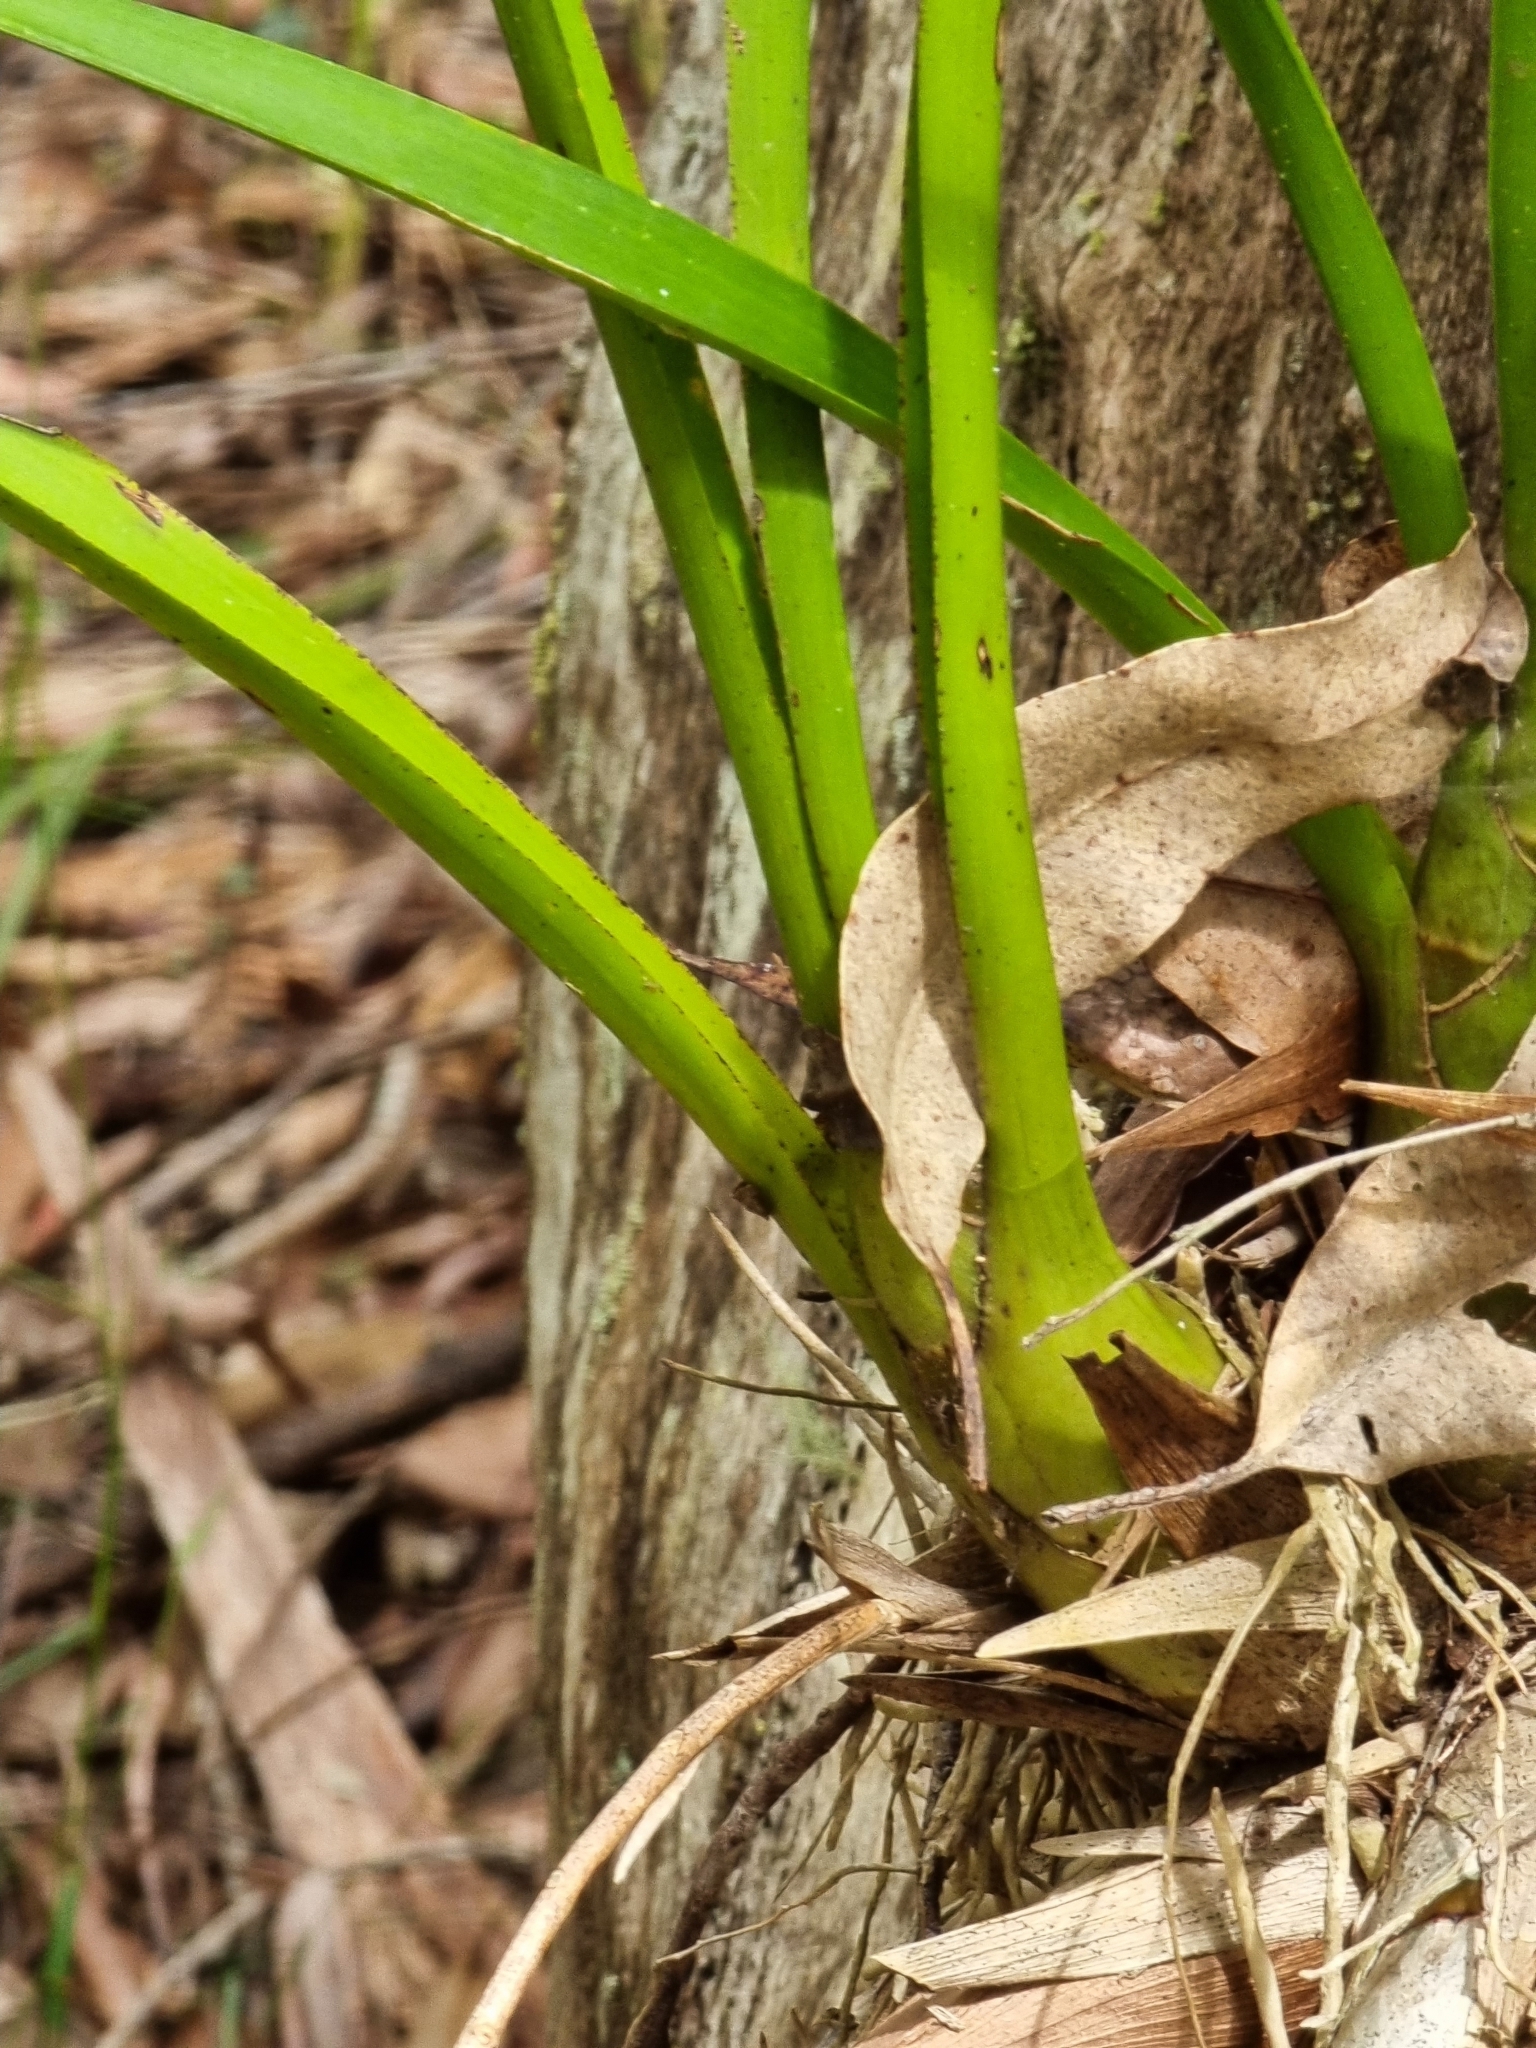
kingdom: Plantae
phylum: Tracheophyta
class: Liliopsida
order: Asparagales
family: Orchidaceae
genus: Cymbidium
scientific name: Cymbidium madidum
